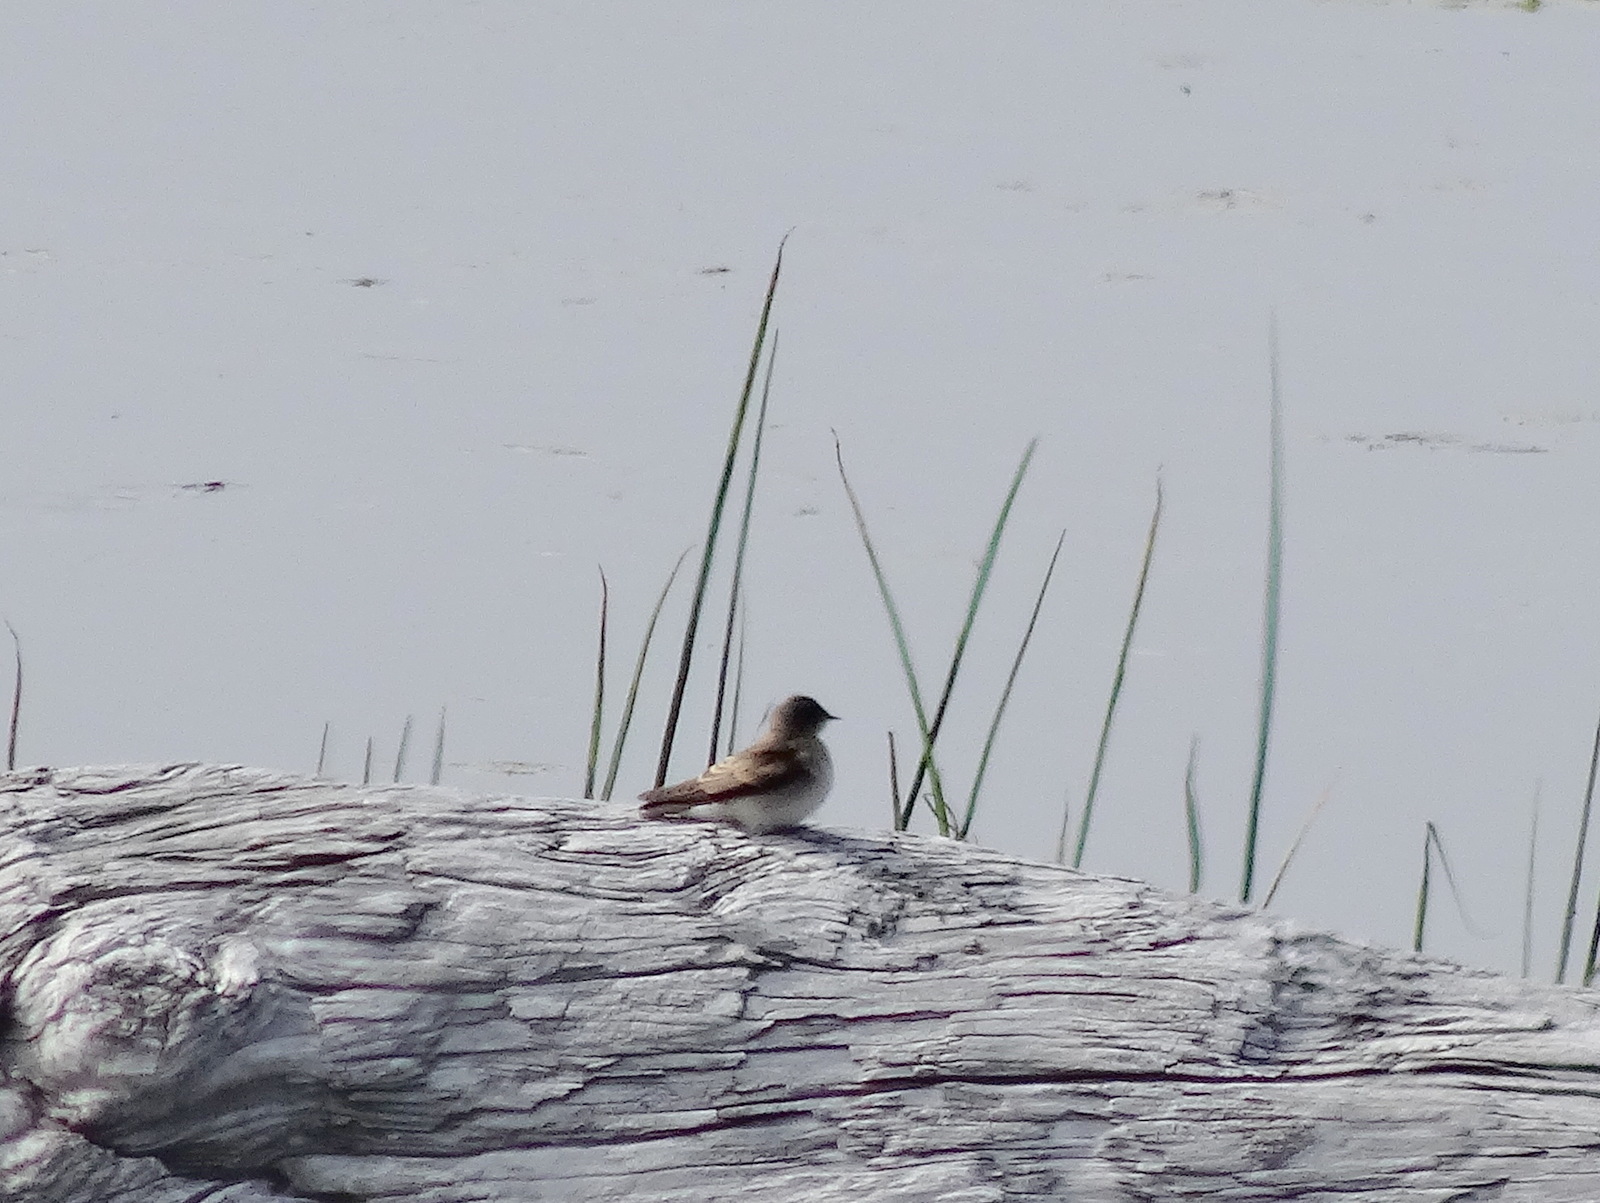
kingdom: Animalia
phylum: Chordata
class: Aves
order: Passeriformes
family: Hirundinidae
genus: Stelgidopteryx
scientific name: Stelgidopteryx serripennis
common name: Northern rough-winged swallow
